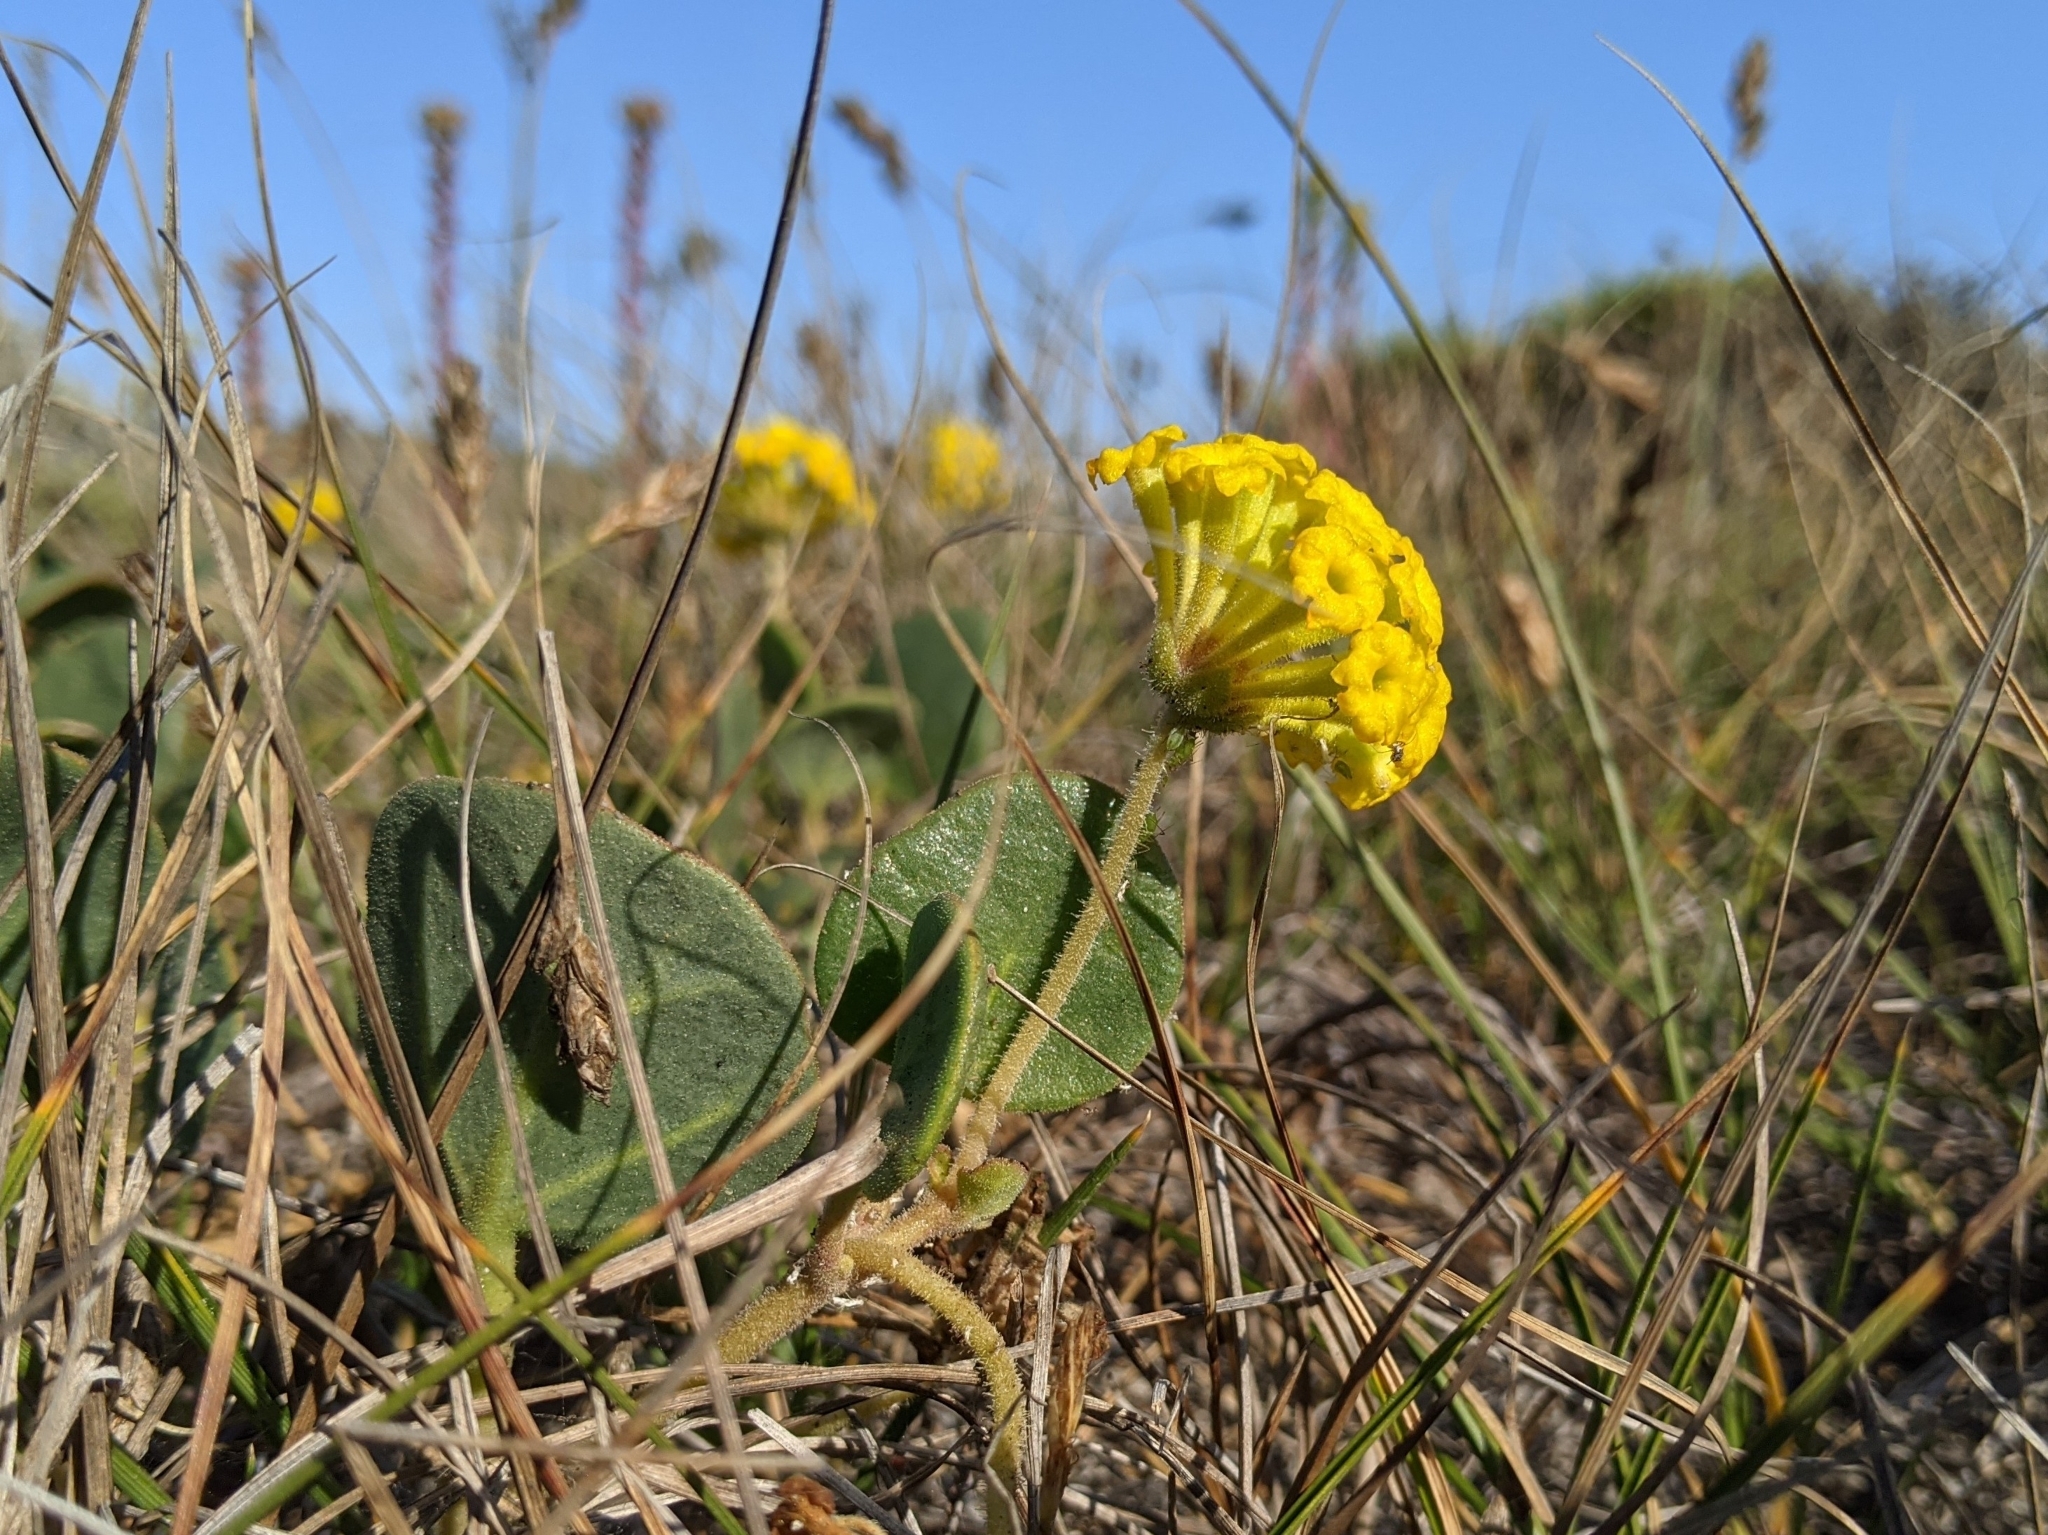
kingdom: Plantae
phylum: Tracheophyta
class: Magnoliopsida
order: Caryophyllales
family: Nyctaginaceae
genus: Abronia
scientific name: Abronia latifolia
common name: Yellow sand-verbena
